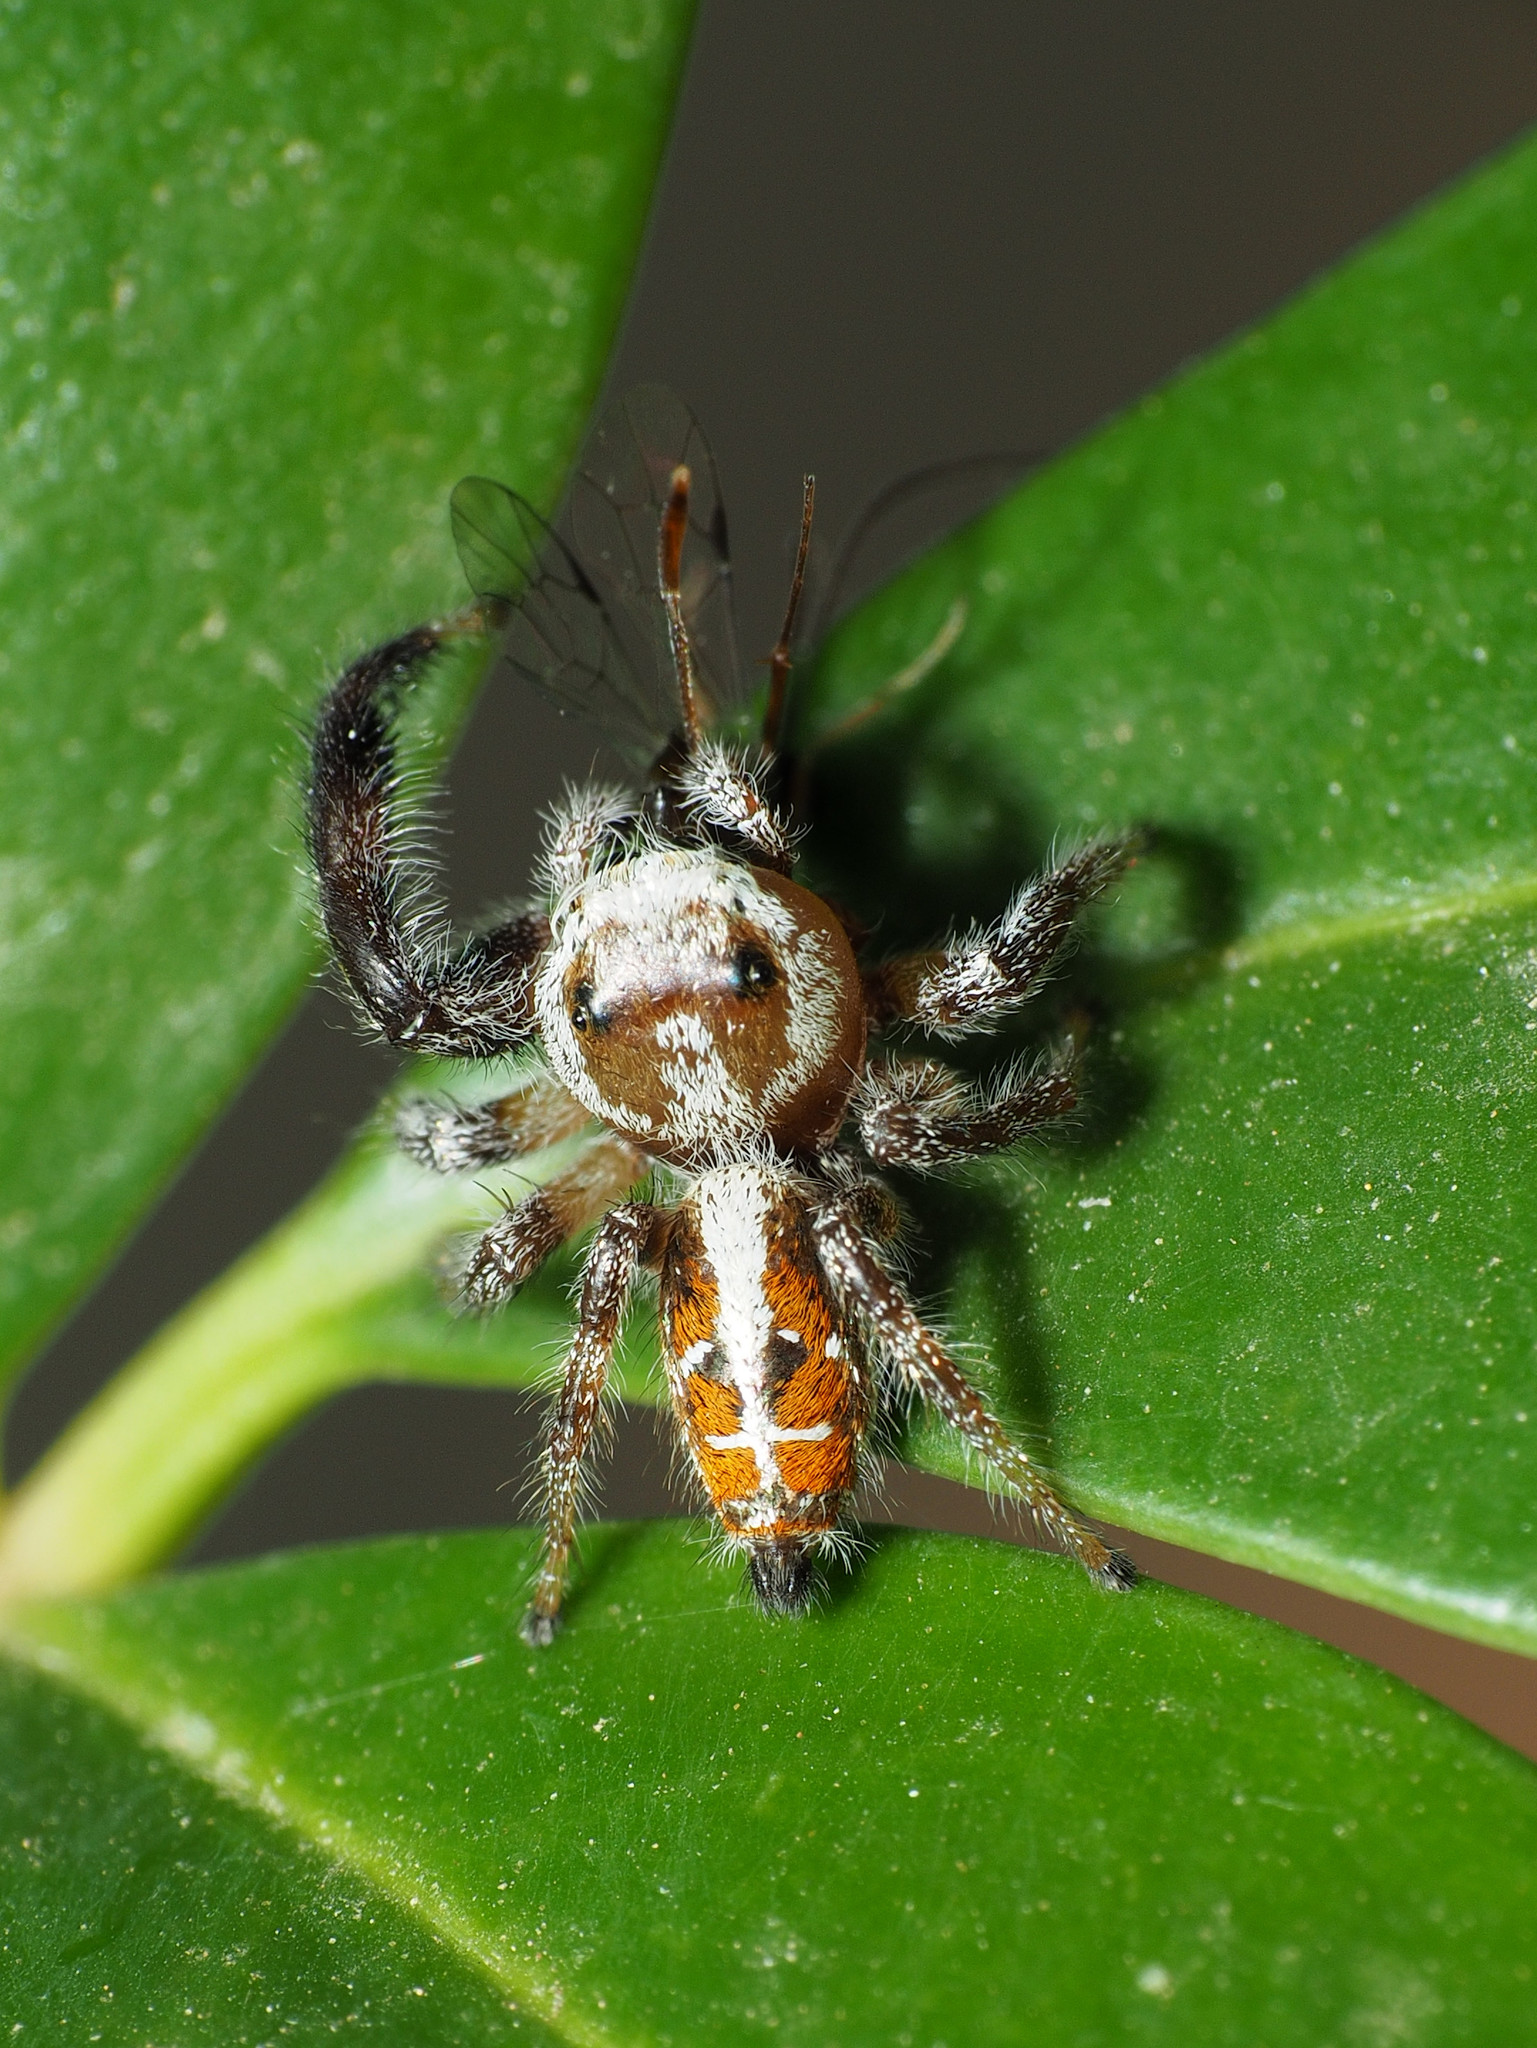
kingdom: Animalia
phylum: Arthropoda
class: Arachnida
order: Araneae
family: Salticidae
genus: Thyene
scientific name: Thyene imperialis
